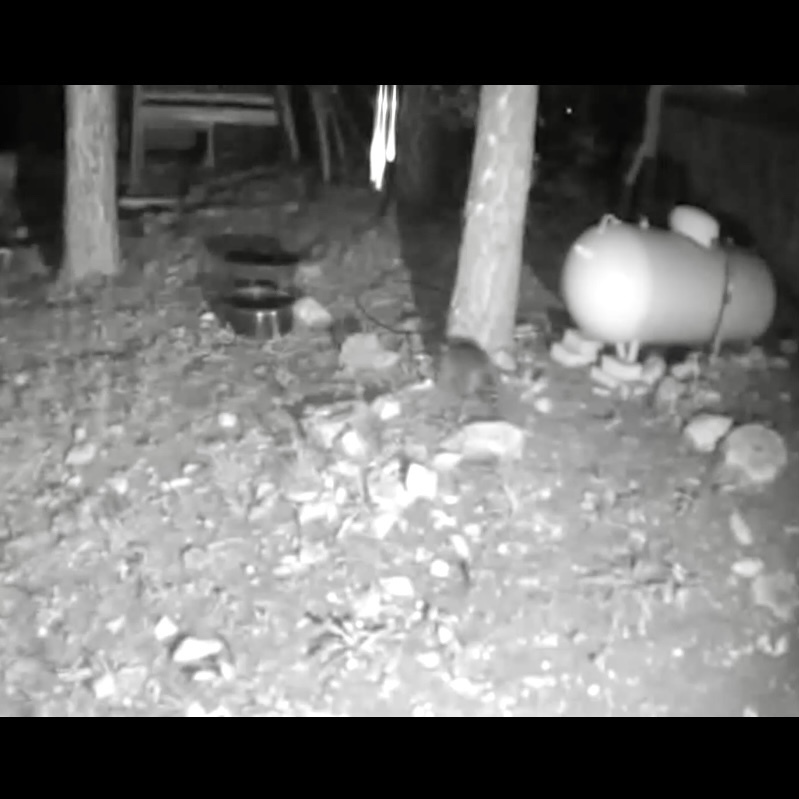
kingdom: Animalia
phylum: Chordata
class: Mammalia
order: Carnivora
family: Procyonidae
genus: Procyon
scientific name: Procyon lotor
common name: Raccoon
